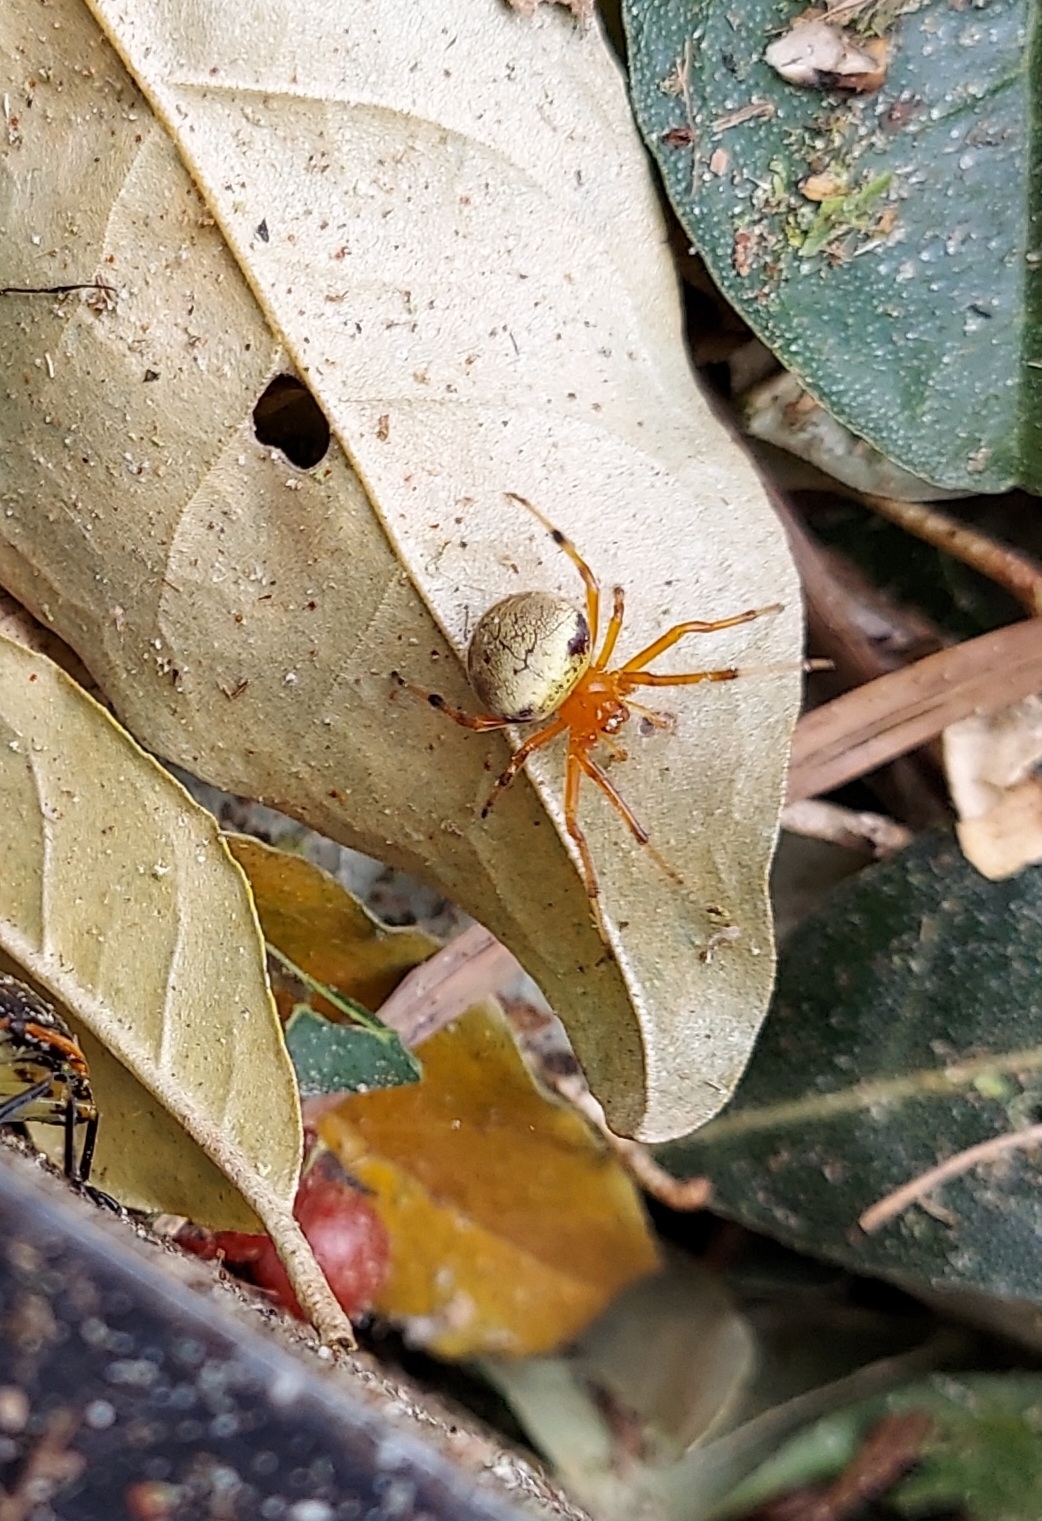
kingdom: Animalia
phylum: Arthropoda
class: Arachnida
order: Araneae
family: Araneidae
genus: Araneus
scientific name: Araneus thaddeus
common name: Lattice orbweaver
